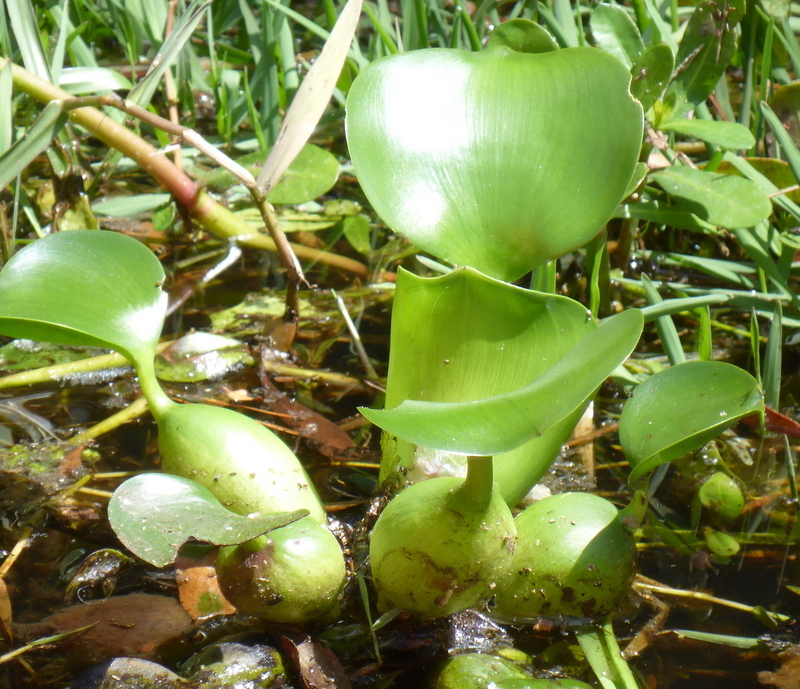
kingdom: Plantae
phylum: Tracheophyta
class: Liliopsida
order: Commelinales
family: Pontederiaceae
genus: Pontederia
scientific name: Pontederia crassipes
